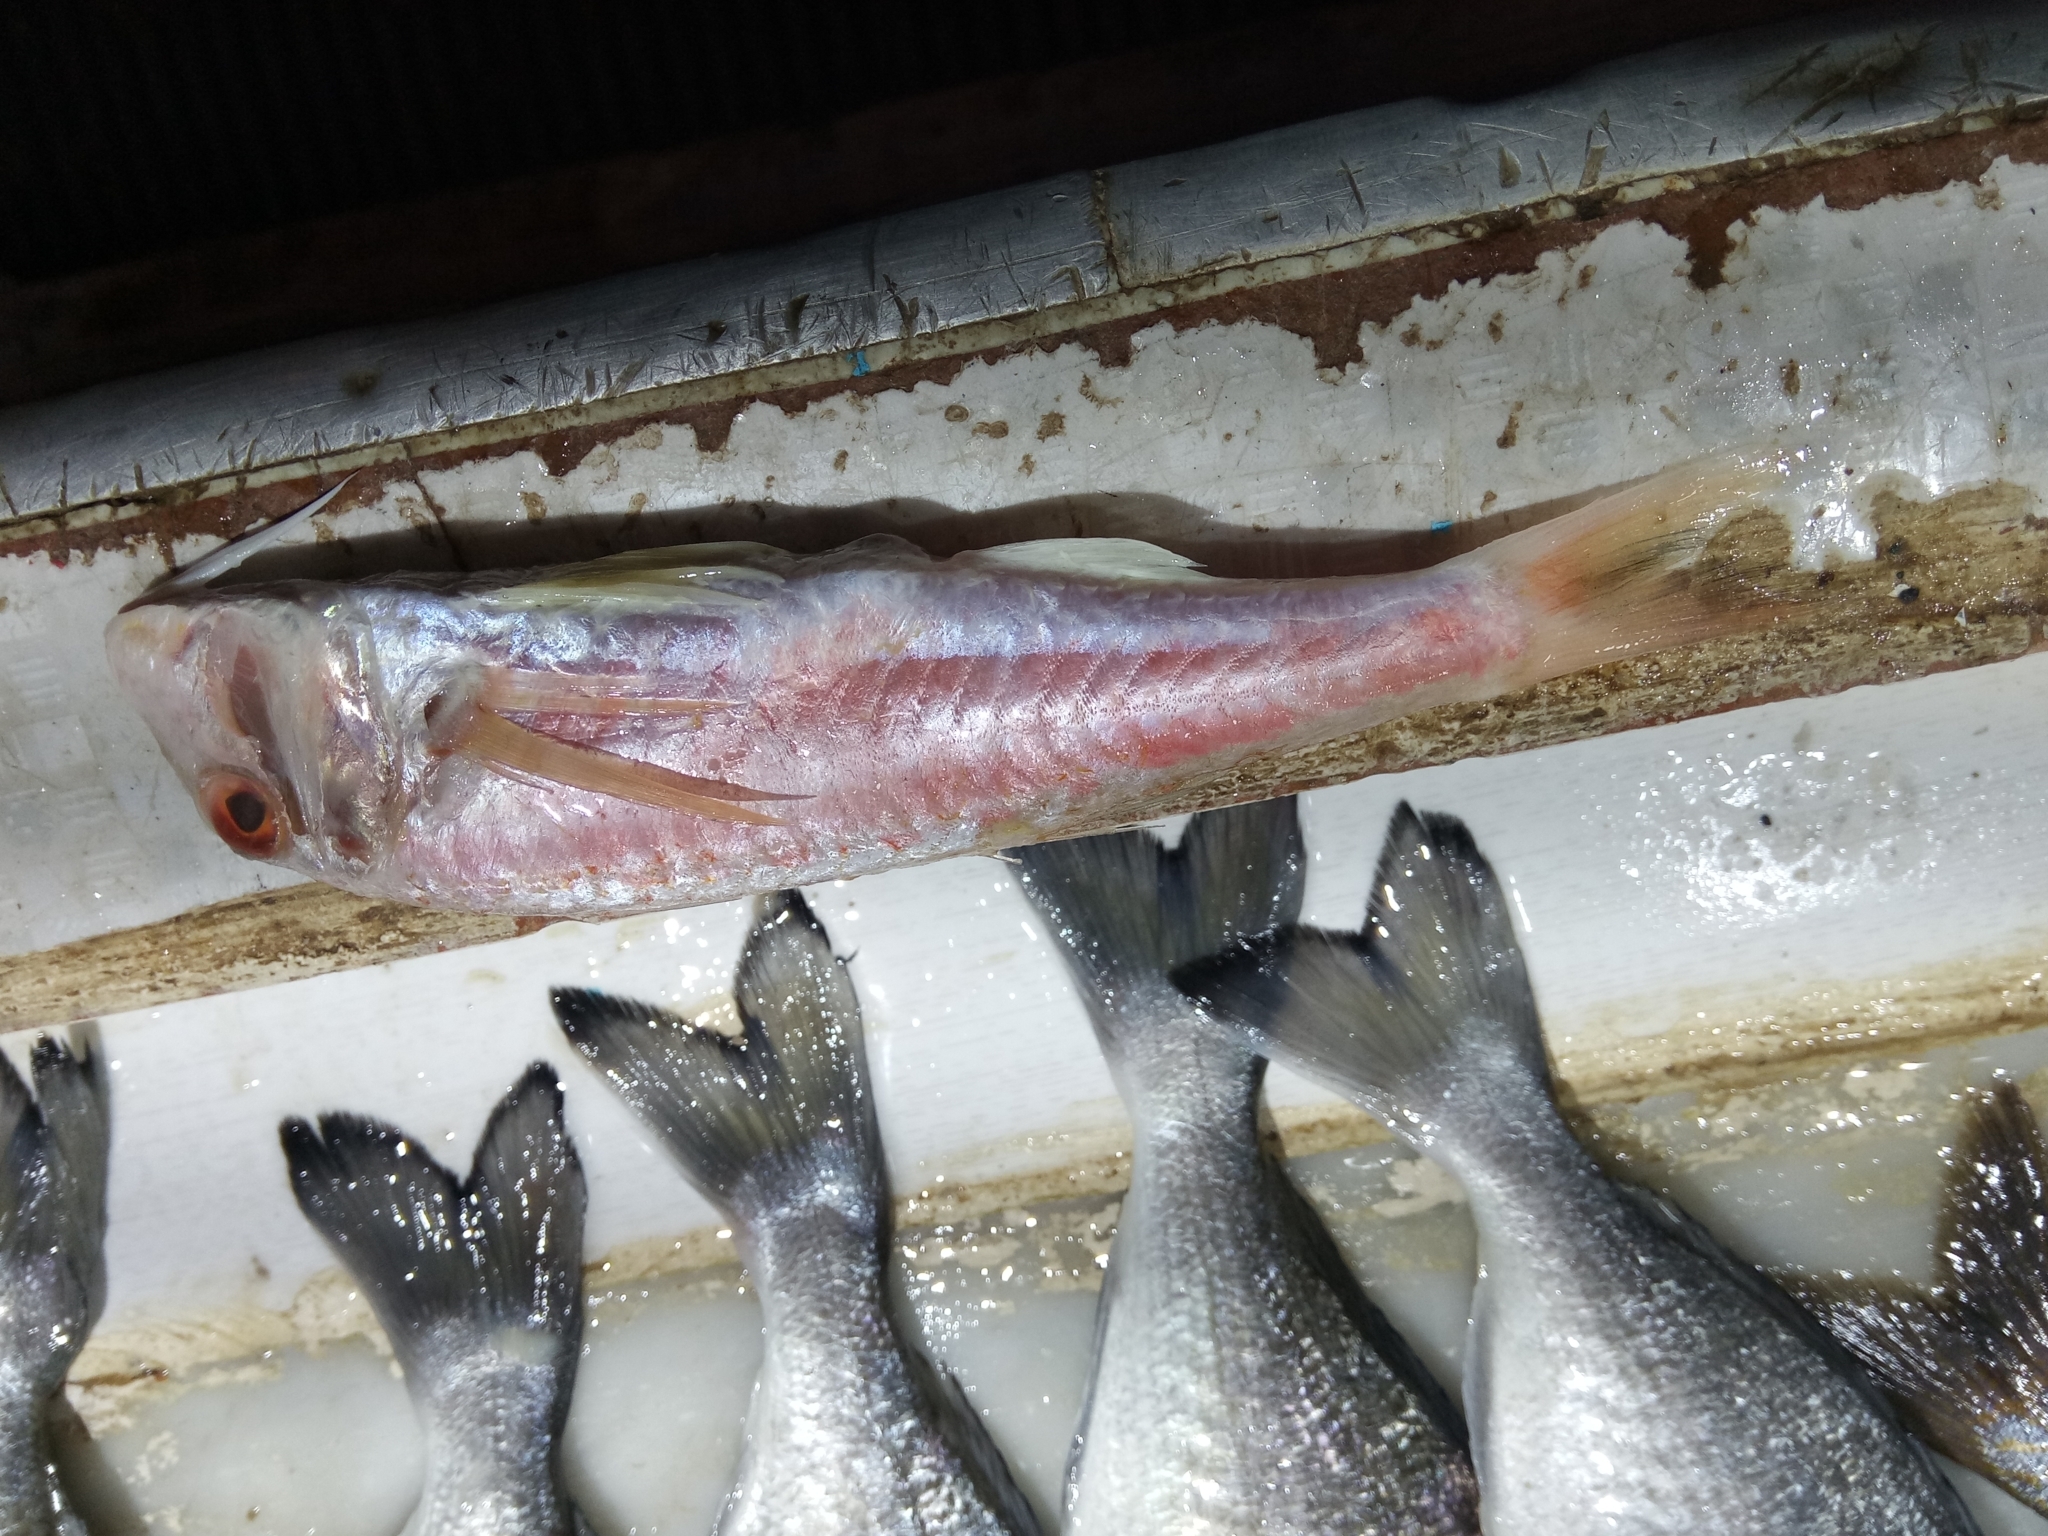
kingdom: Animalia
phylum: Chordata
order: Perciformes
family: Mullidae
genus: Mullus
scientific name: Mullus barbatus
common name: Blunt-snouted mullet
